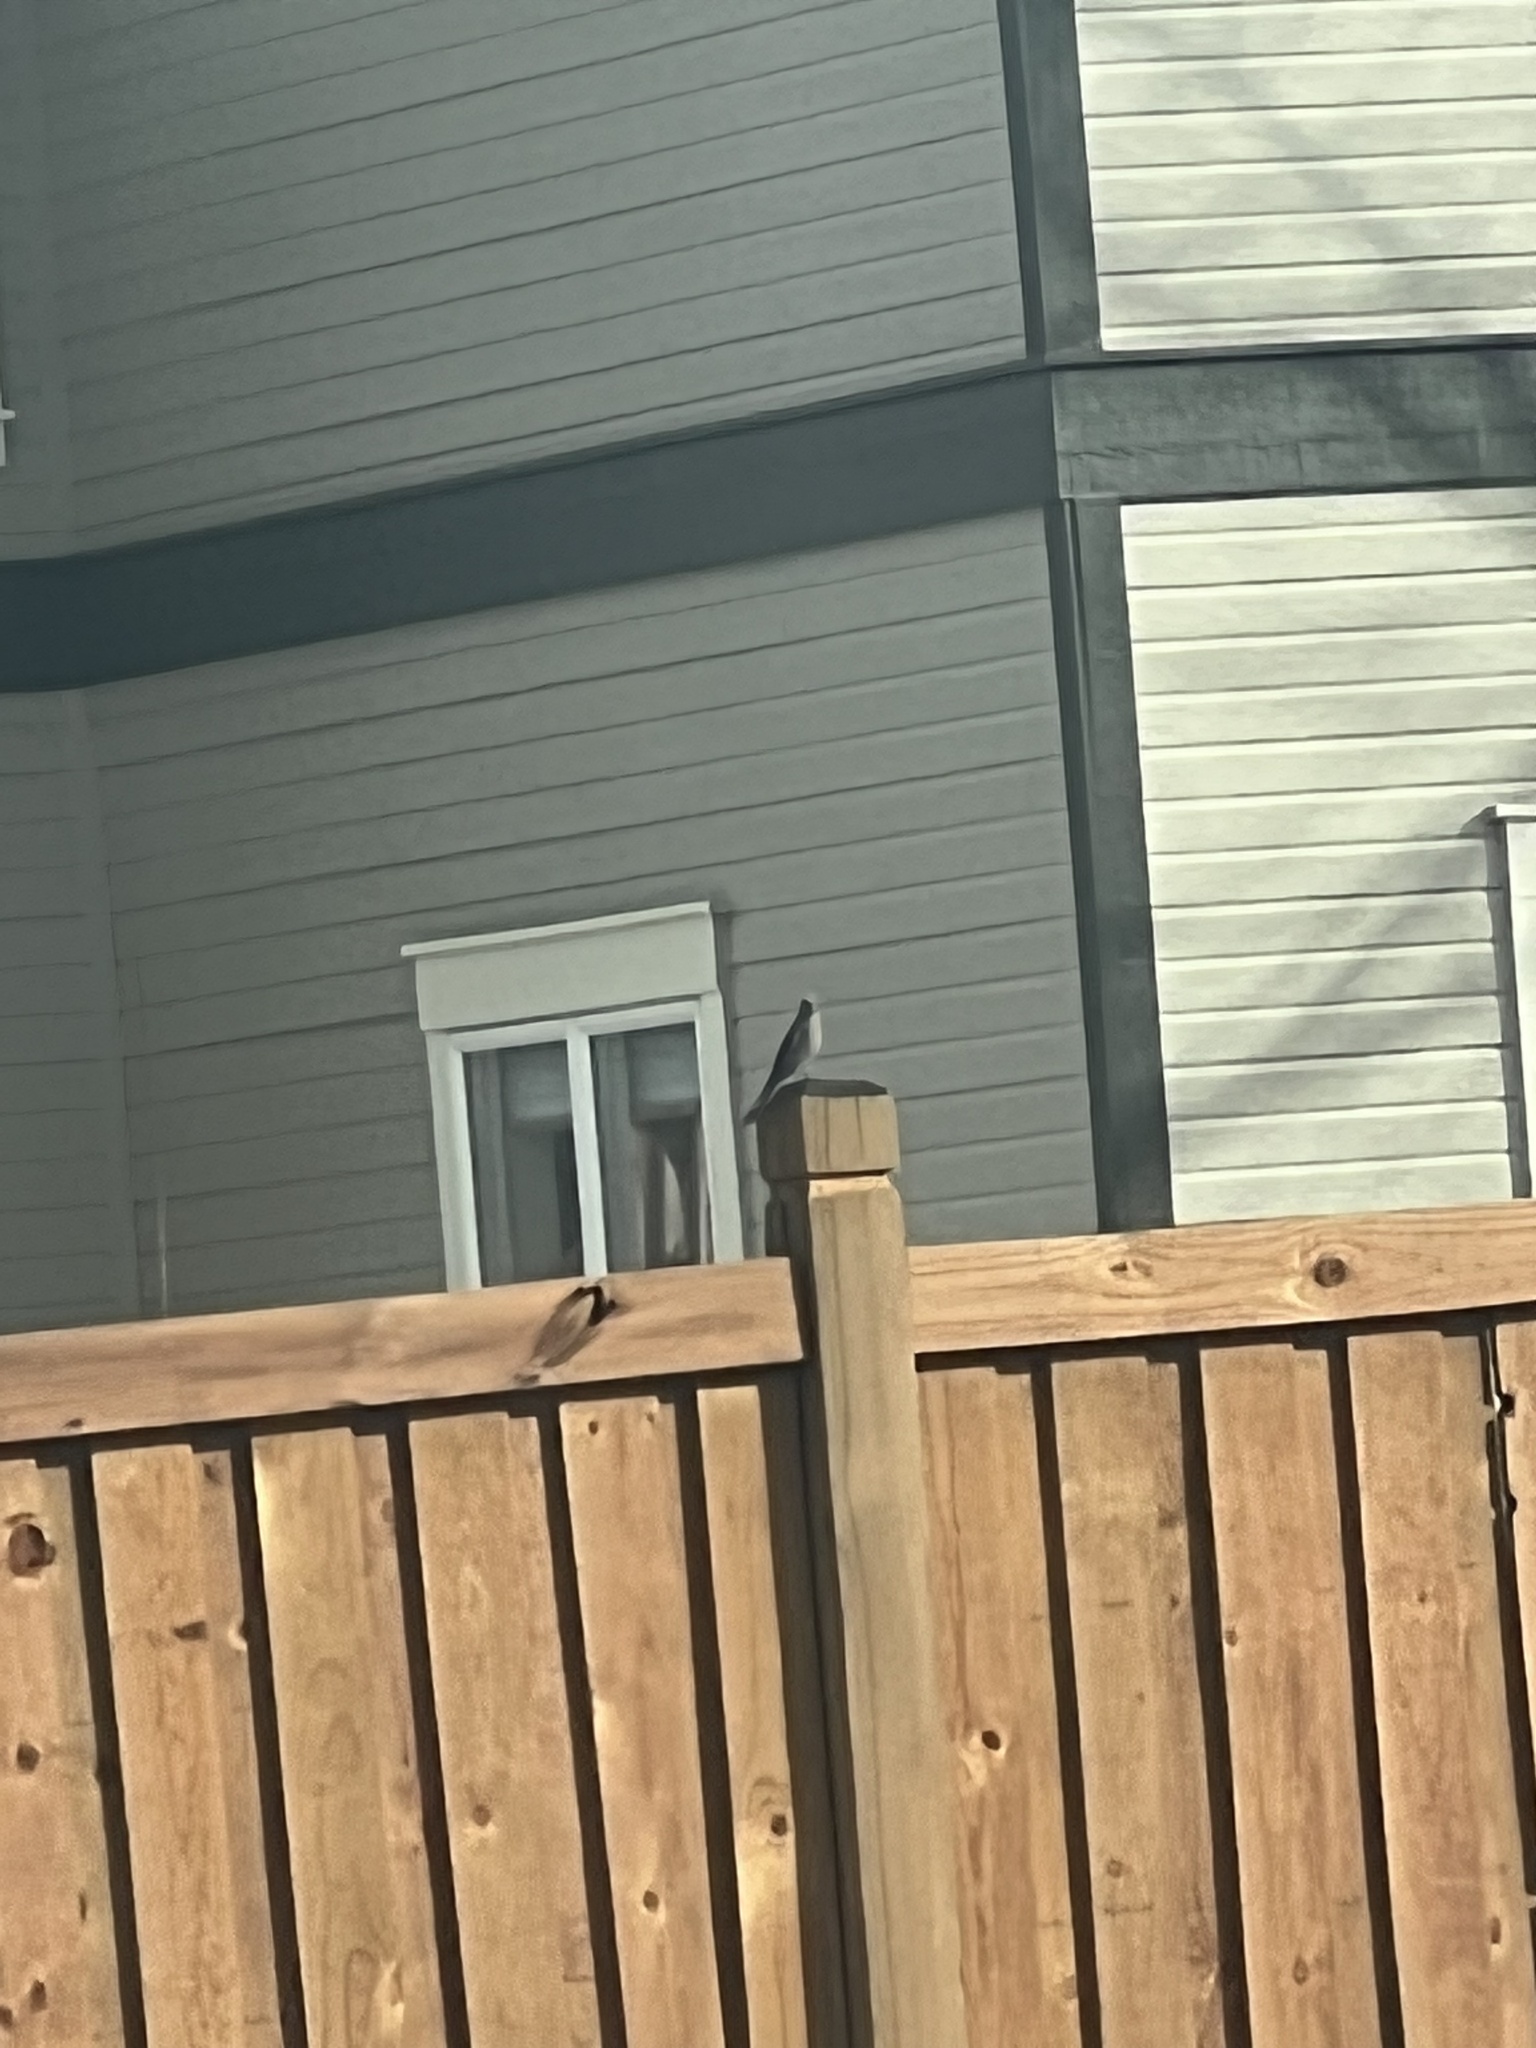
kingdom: Animalia
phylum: Chordata
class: Aves
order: Passeriformes
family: Turdidae
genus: Myadestes
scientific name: Myadestes townsendi
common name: Townsend's solitaire
